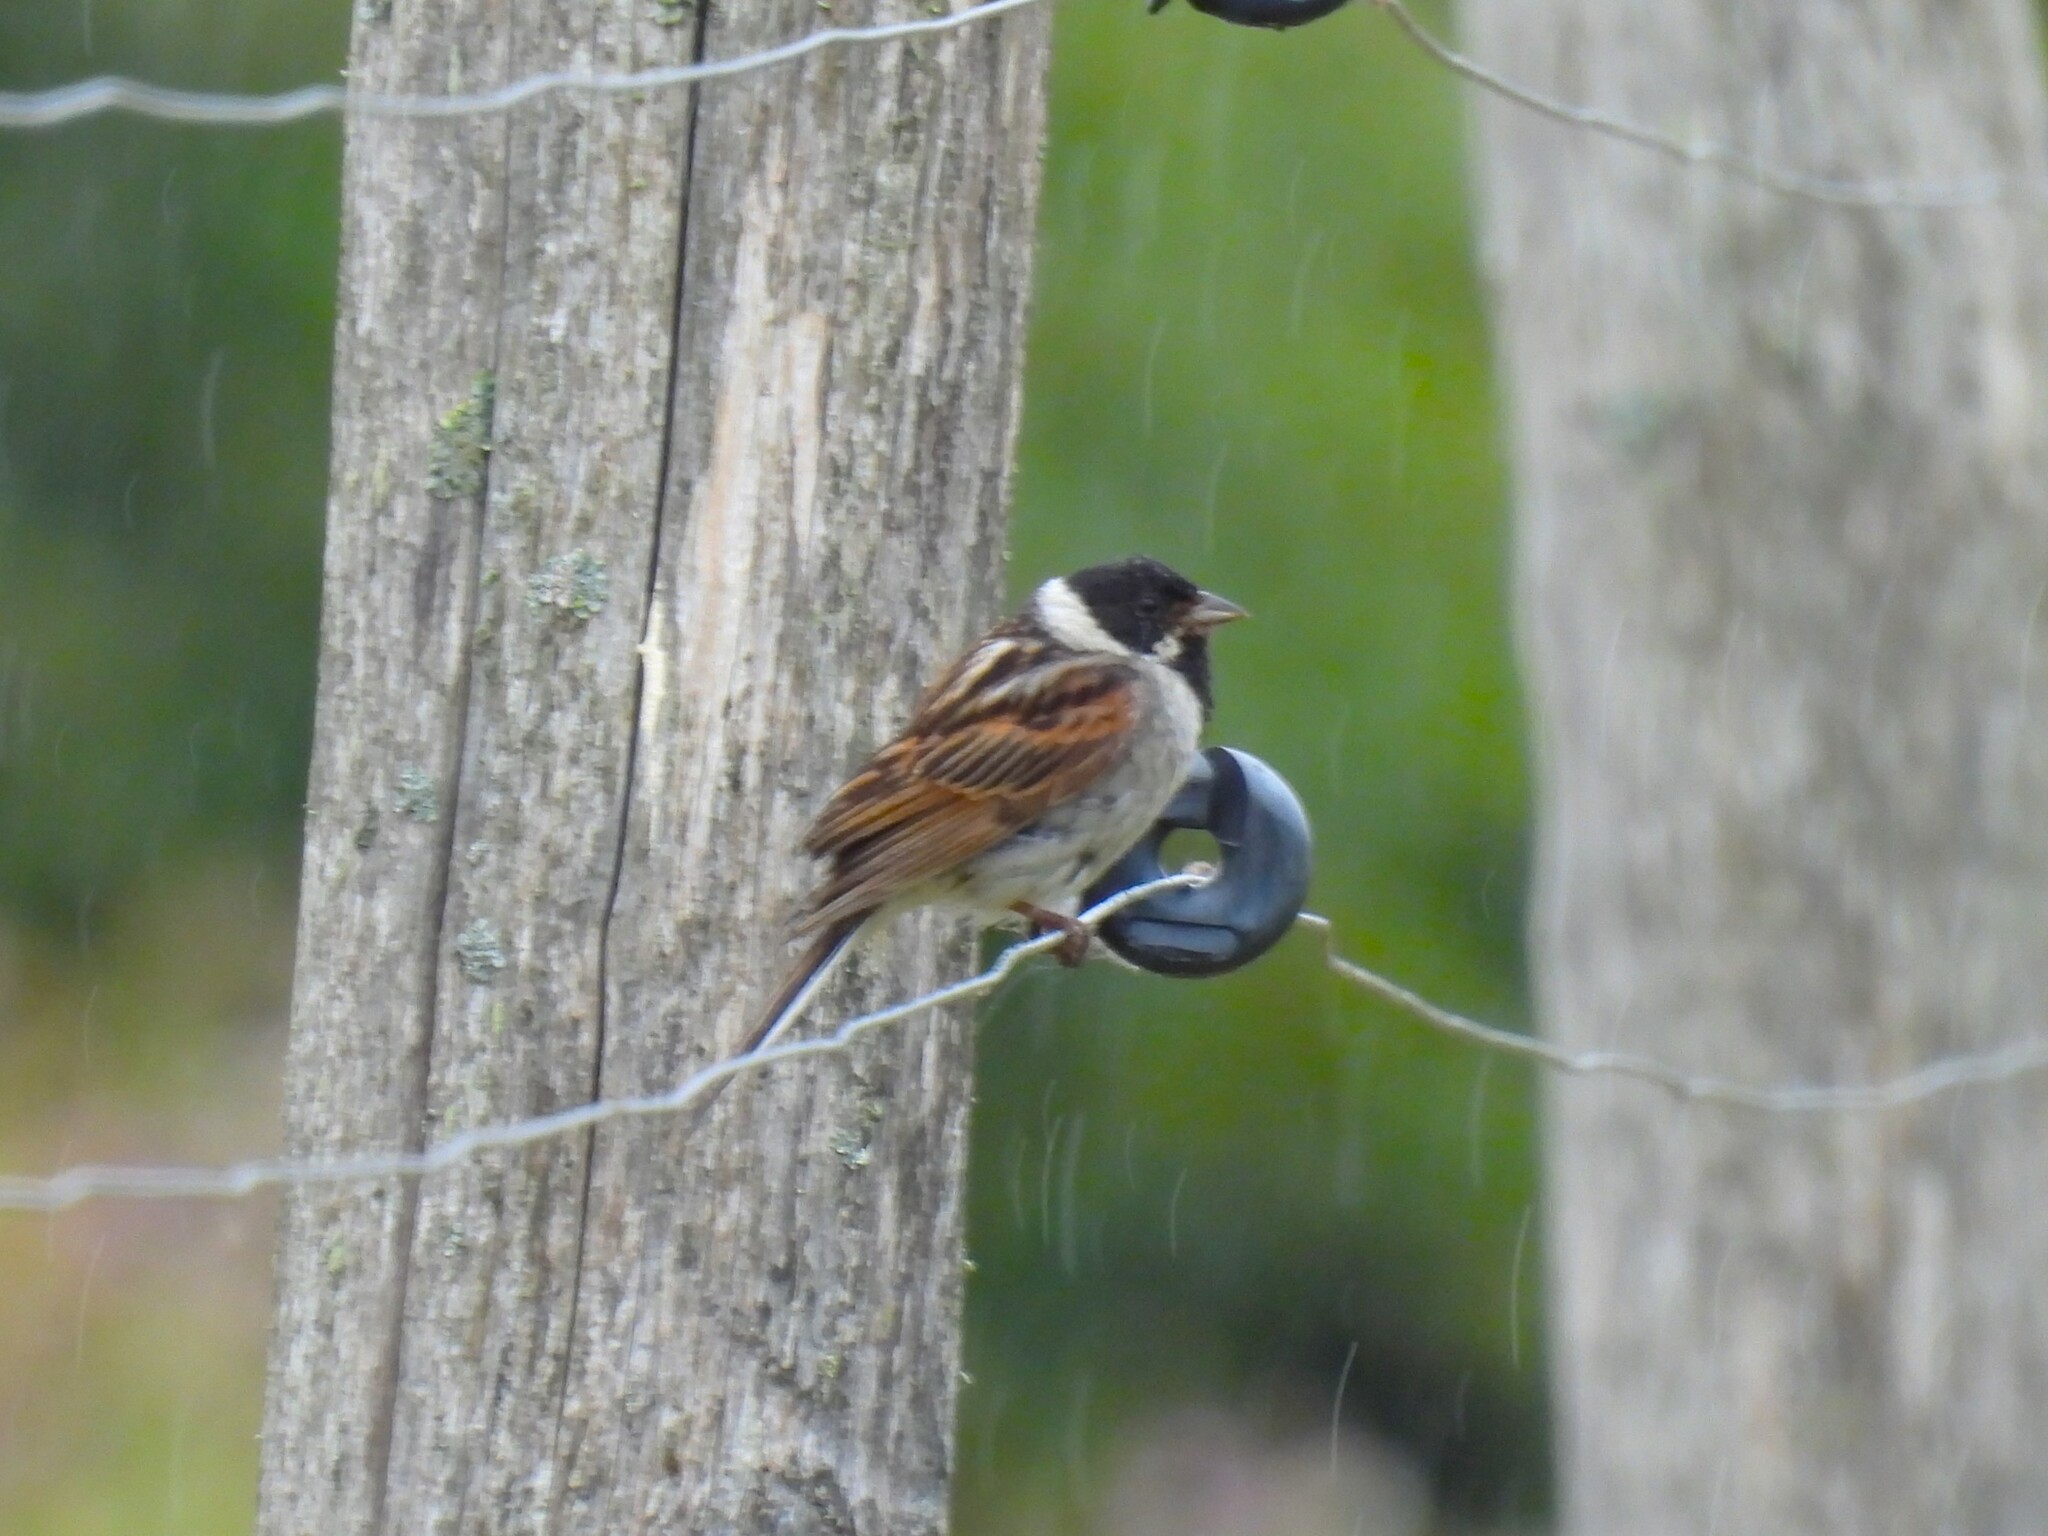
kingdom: Animalia
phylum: Chordata
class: Aves
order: Passeriformes
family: Emberizidae
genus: Emberiza
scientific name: Emberiza schoeniclus
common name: Reed bunting
